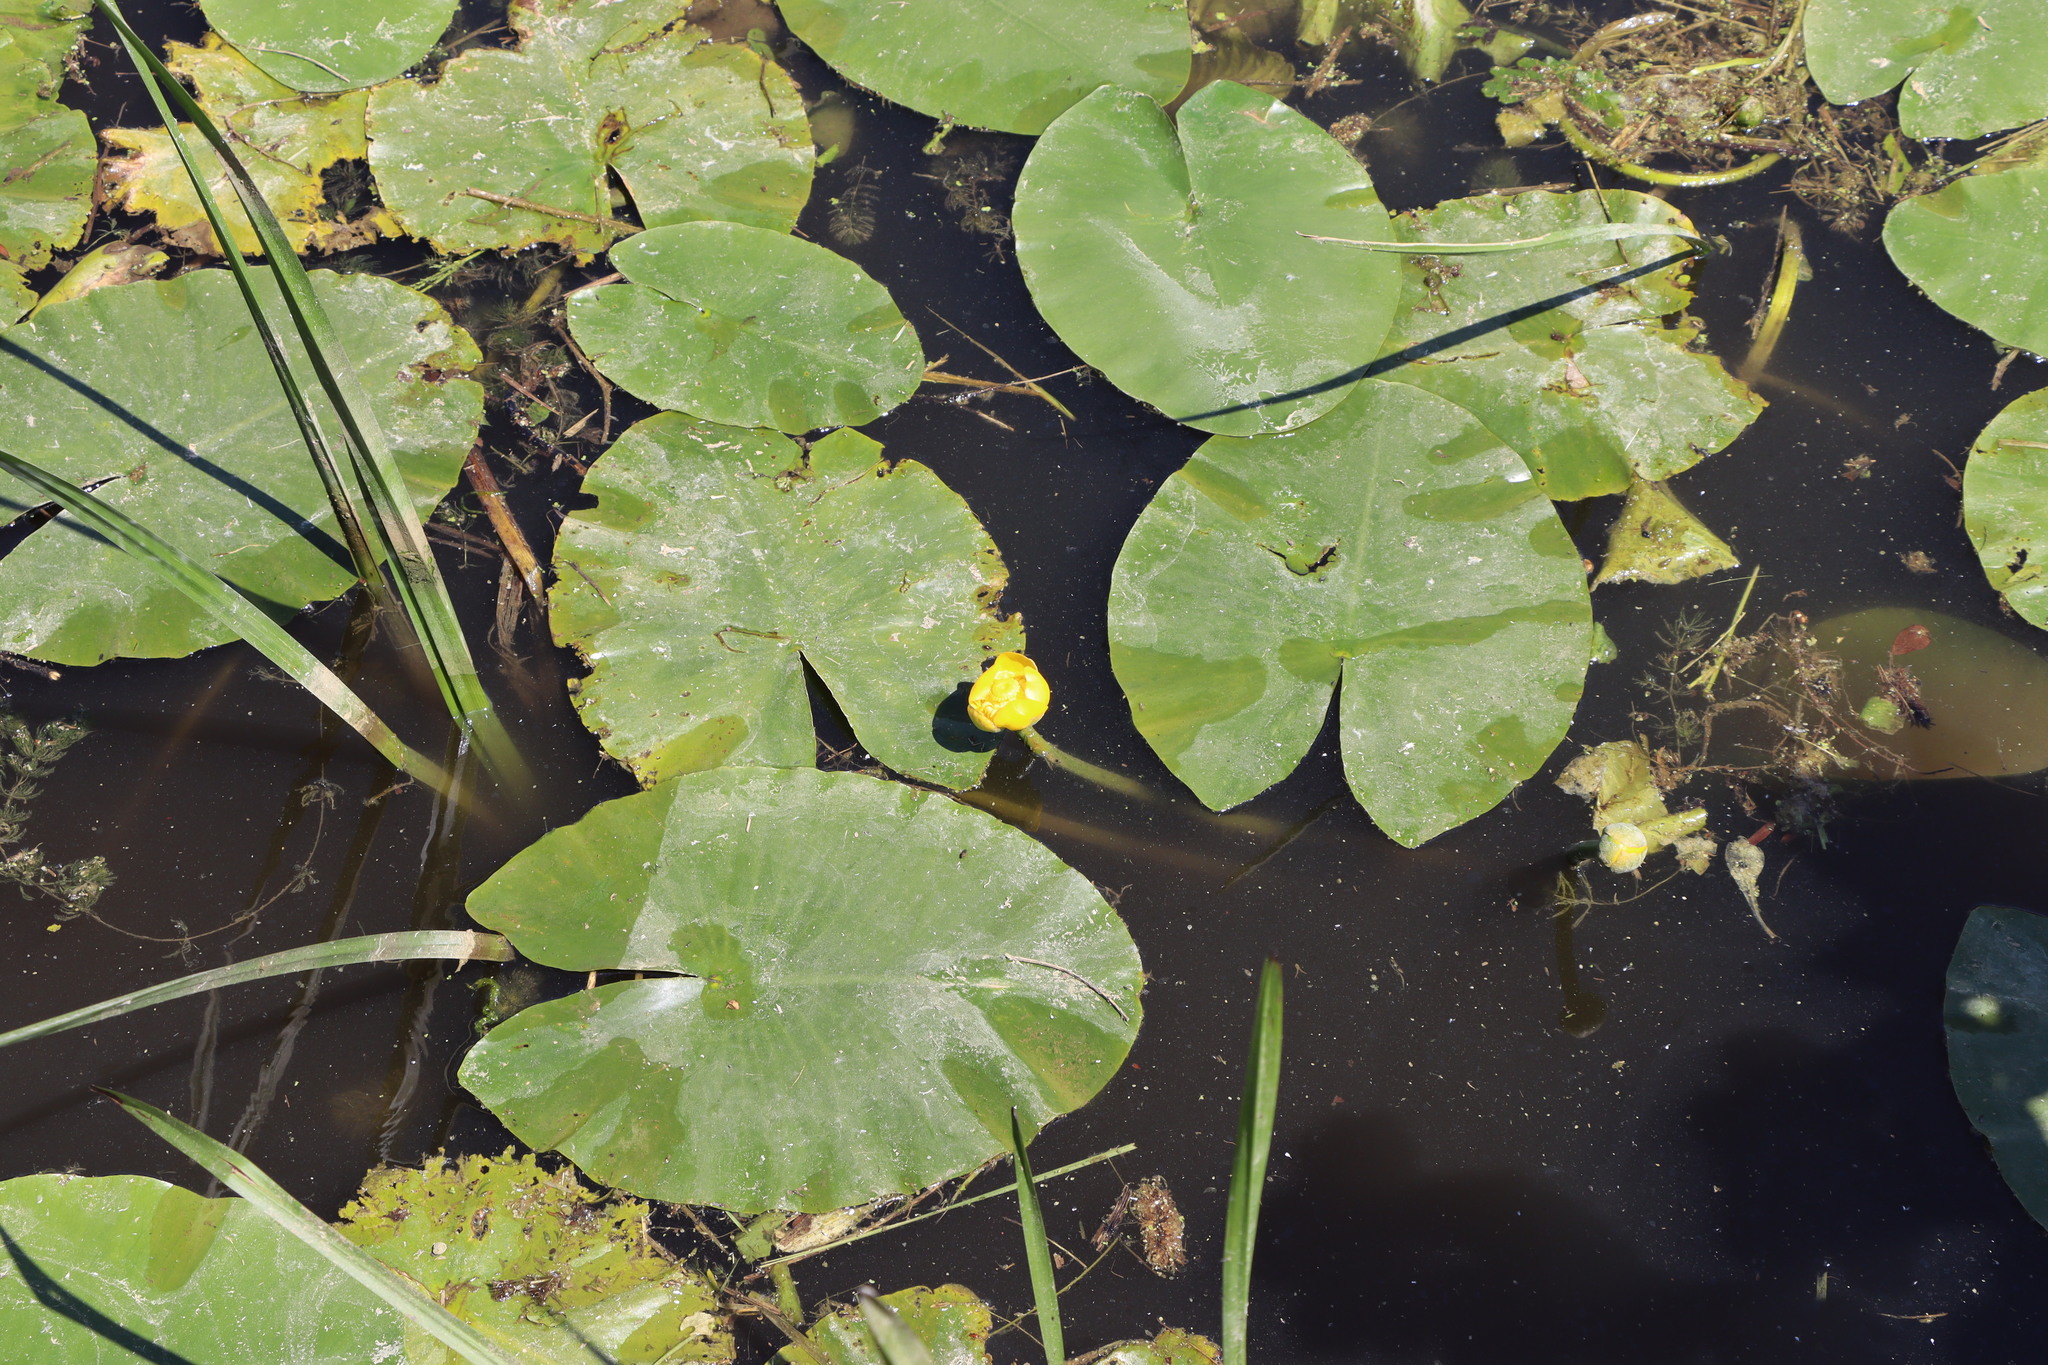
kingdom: Plantae
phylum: Tracheophyta
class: Magnoliopsida
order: Nymphaeales
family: Nymphaeaceae
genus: Nuphar
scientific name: Nuphar lutea
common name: Yellow water-lily
